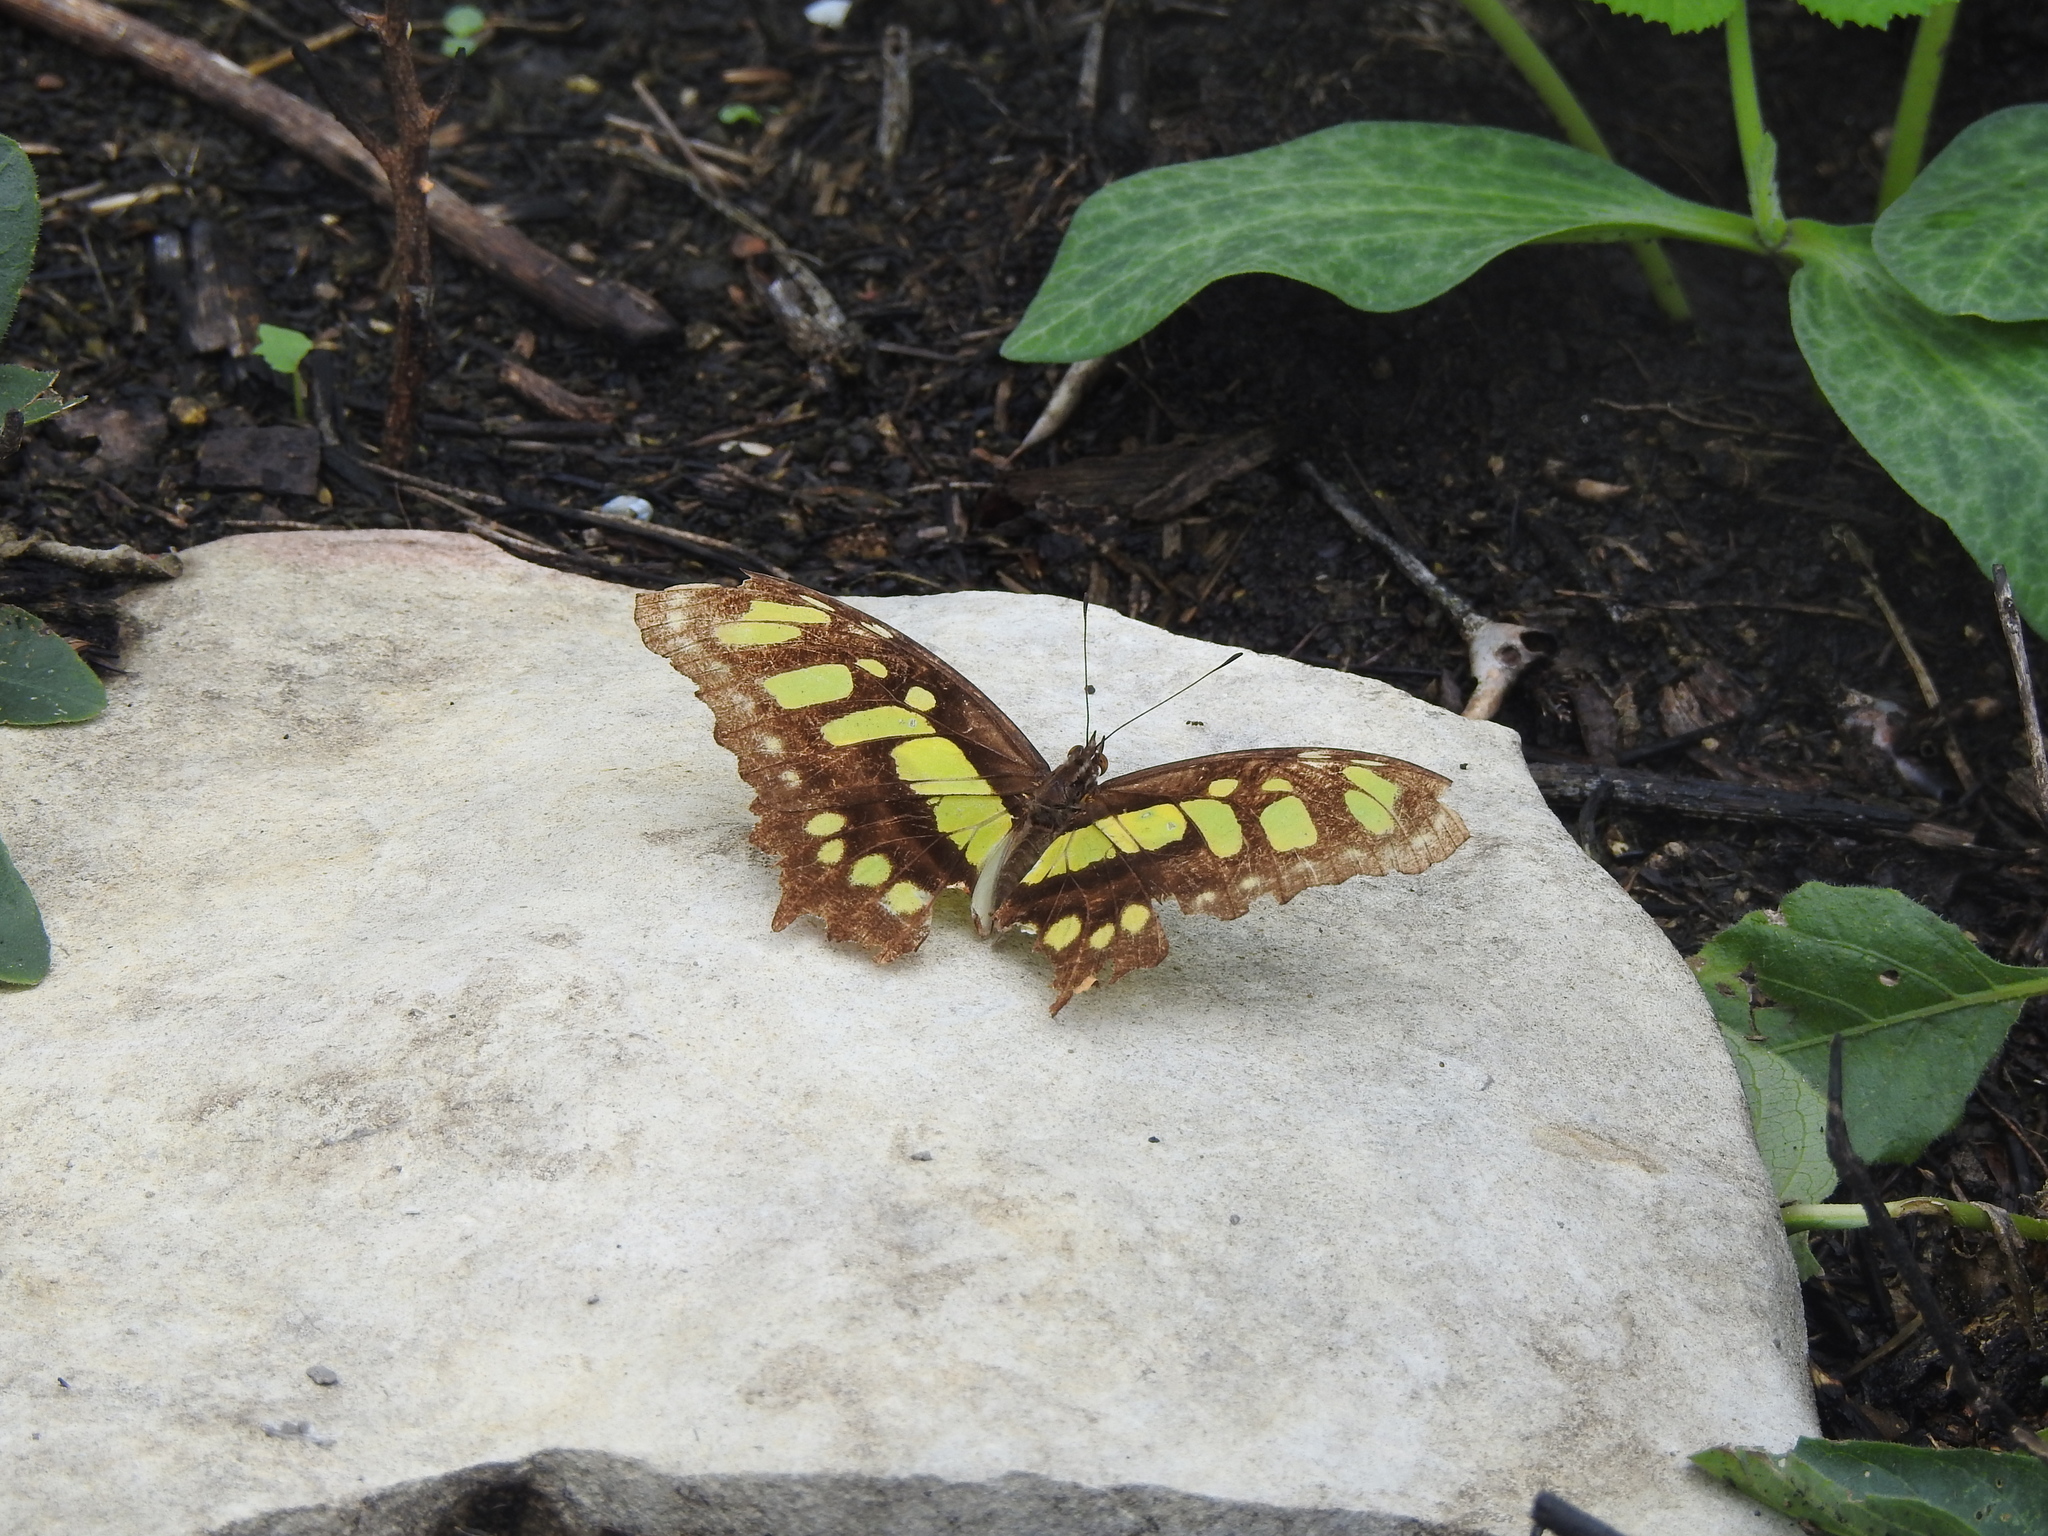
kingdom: Animalia
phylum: Arthropoda
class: Insecta
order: Lepidoptera
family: Nymphalidae
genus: Siproeta
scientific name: Siproeta stelenes
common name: Malachite
